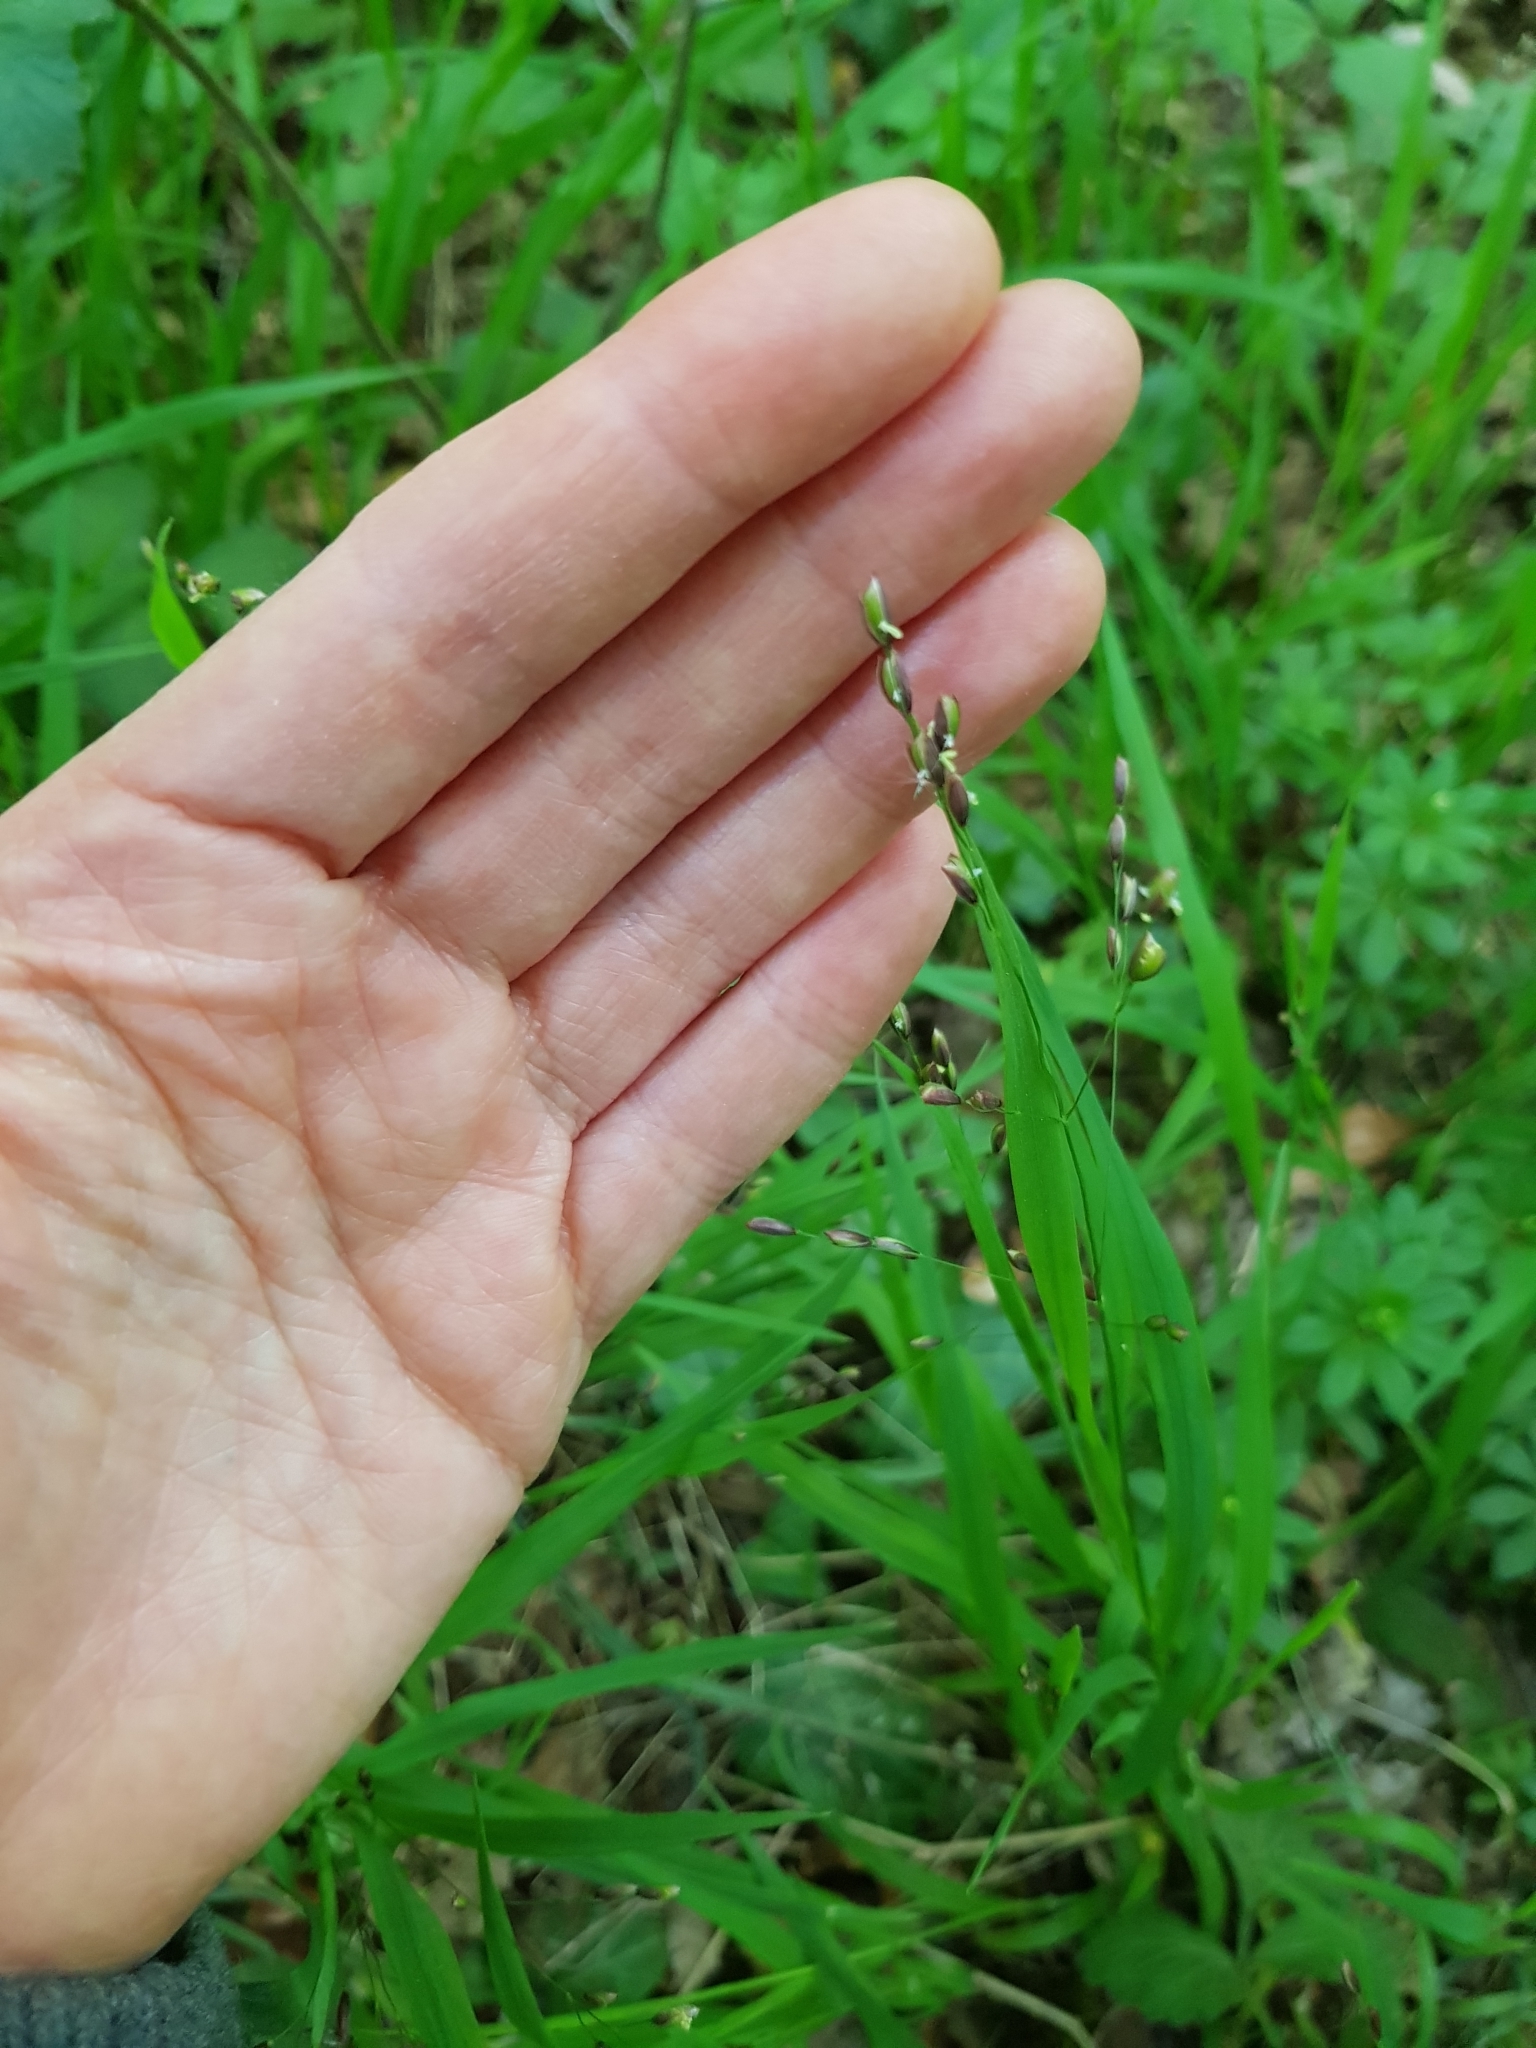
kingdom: Plantae
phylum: Tracheophyta
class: Liliopsida
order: Poales
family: Poaceae
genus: Melica
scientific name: Melica uniflora
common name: Wood melick
